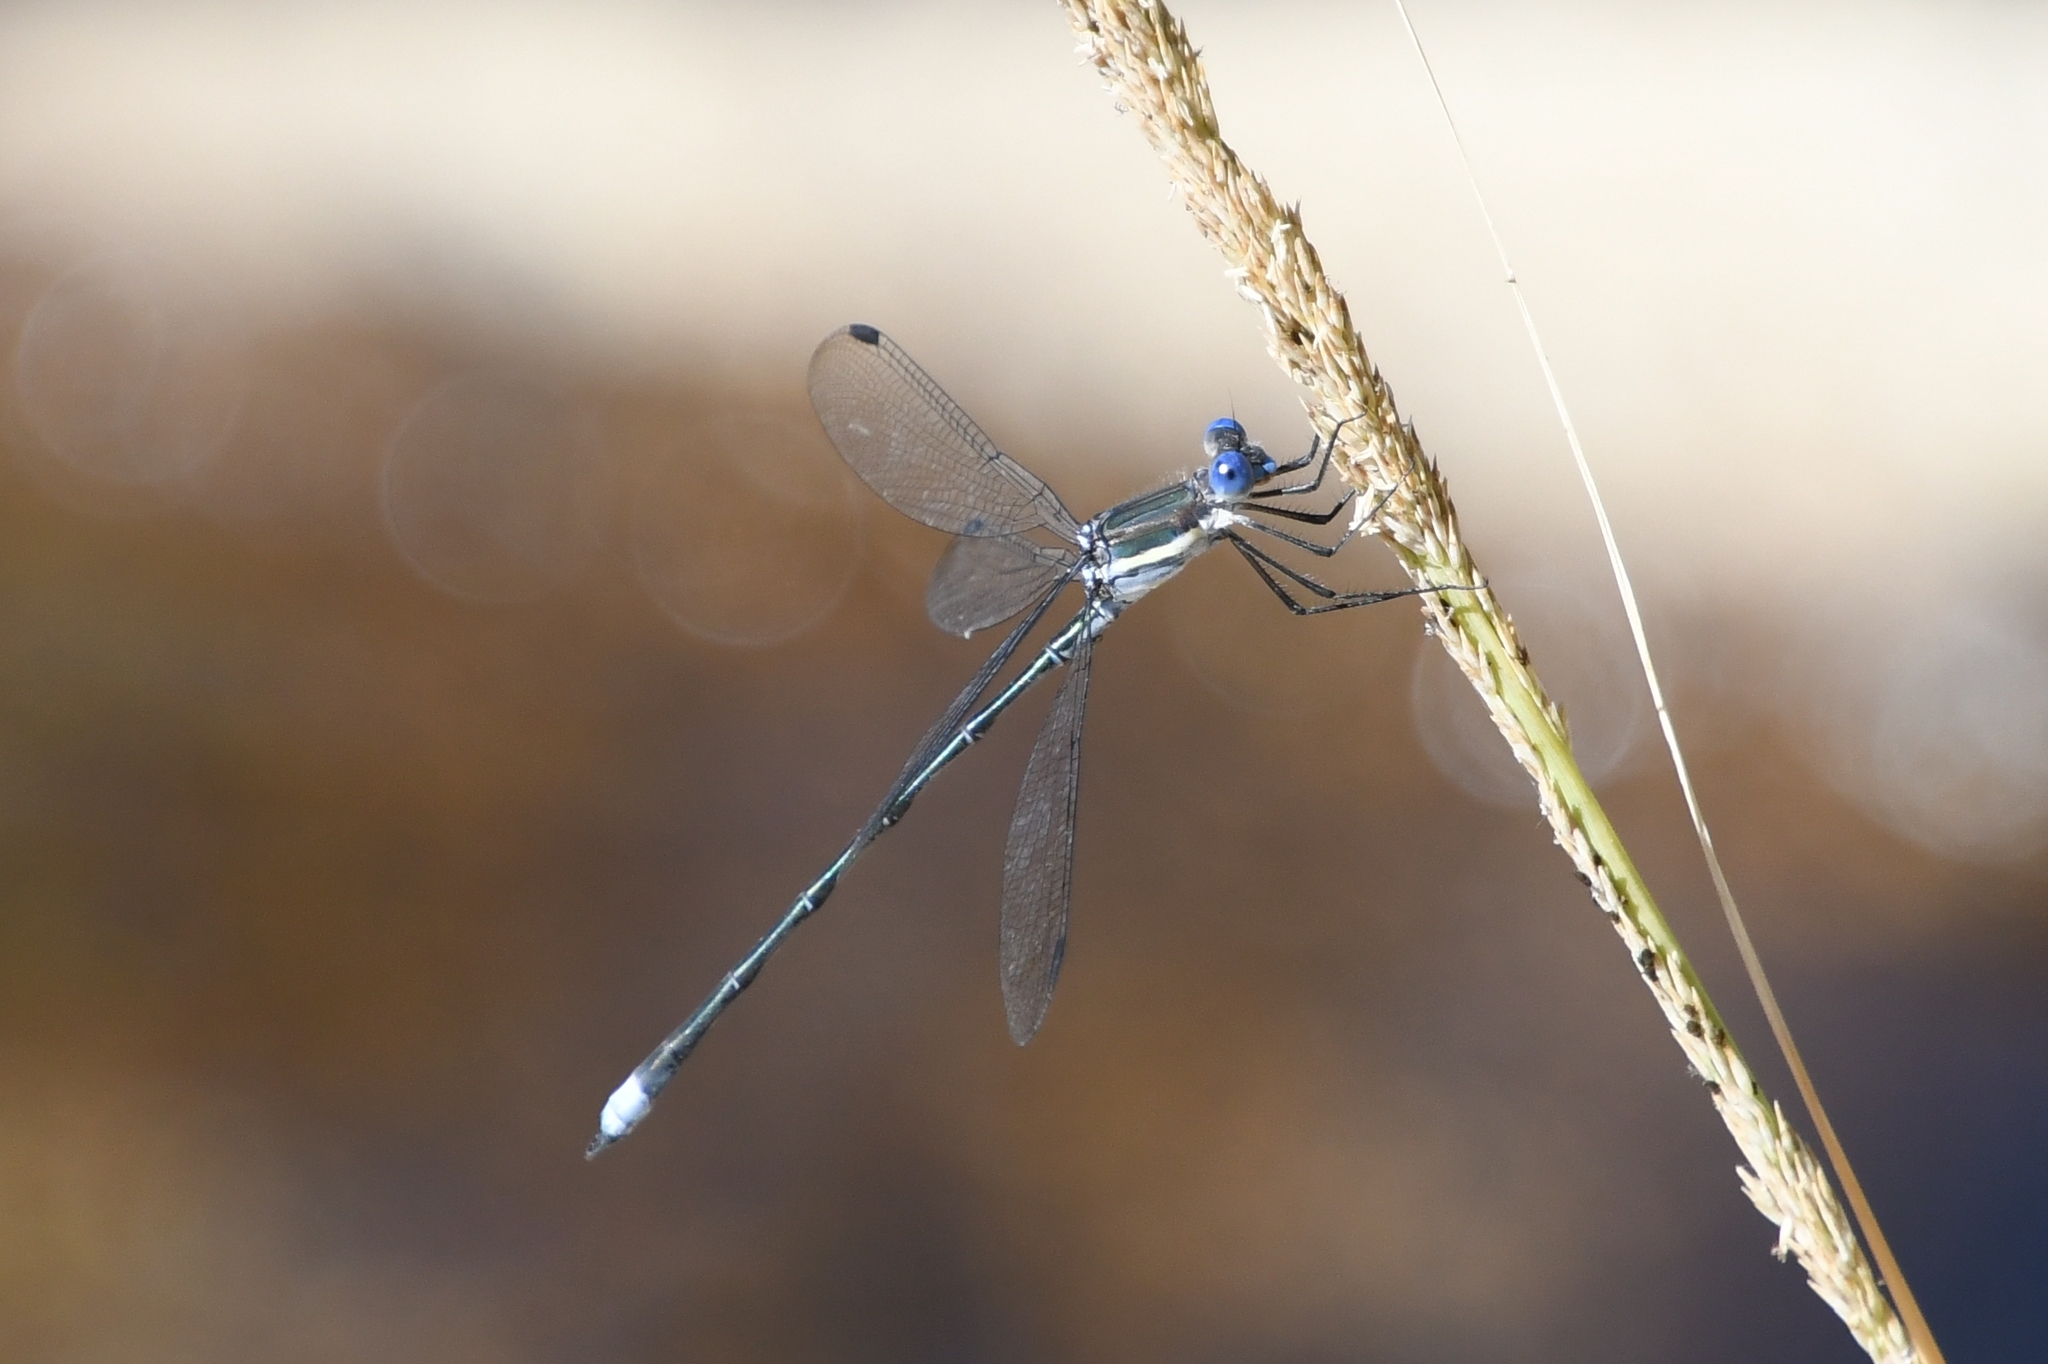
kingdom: Animalia
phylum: Arthropoda
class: Insecta
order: Odonata
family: Lestidae
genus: Archilestes
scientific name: Archilestes grandis
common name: Great spreadwing
